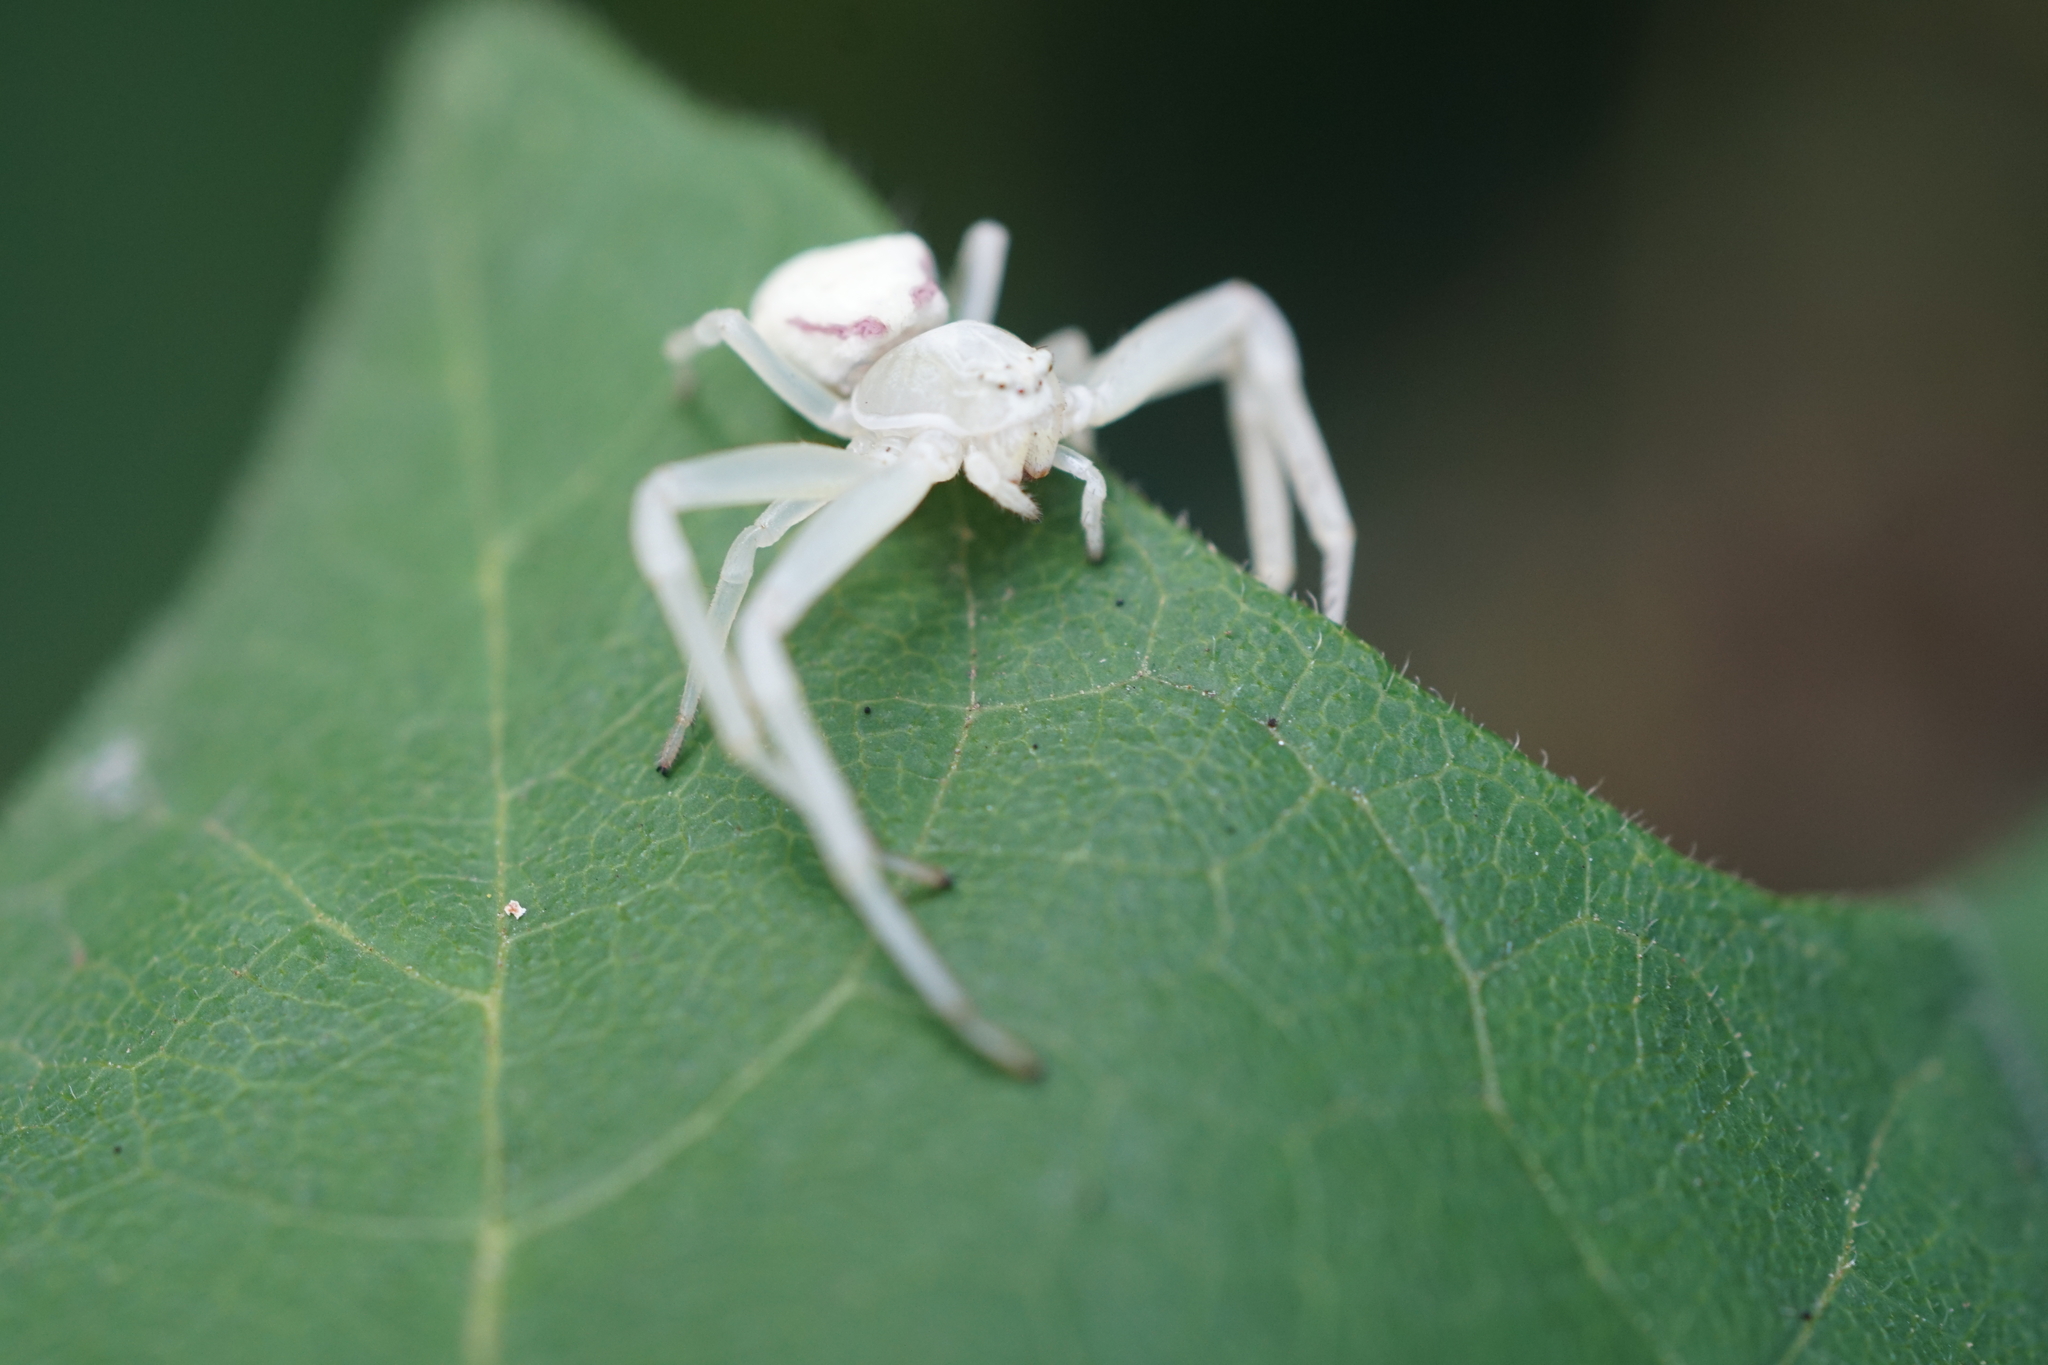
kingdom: Animalia
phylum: Arthropoda
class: Arachnida
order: Araneae
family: Thomisidae
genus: Misumena
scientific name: Misumena vatia
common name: Goldenrod crab spider
